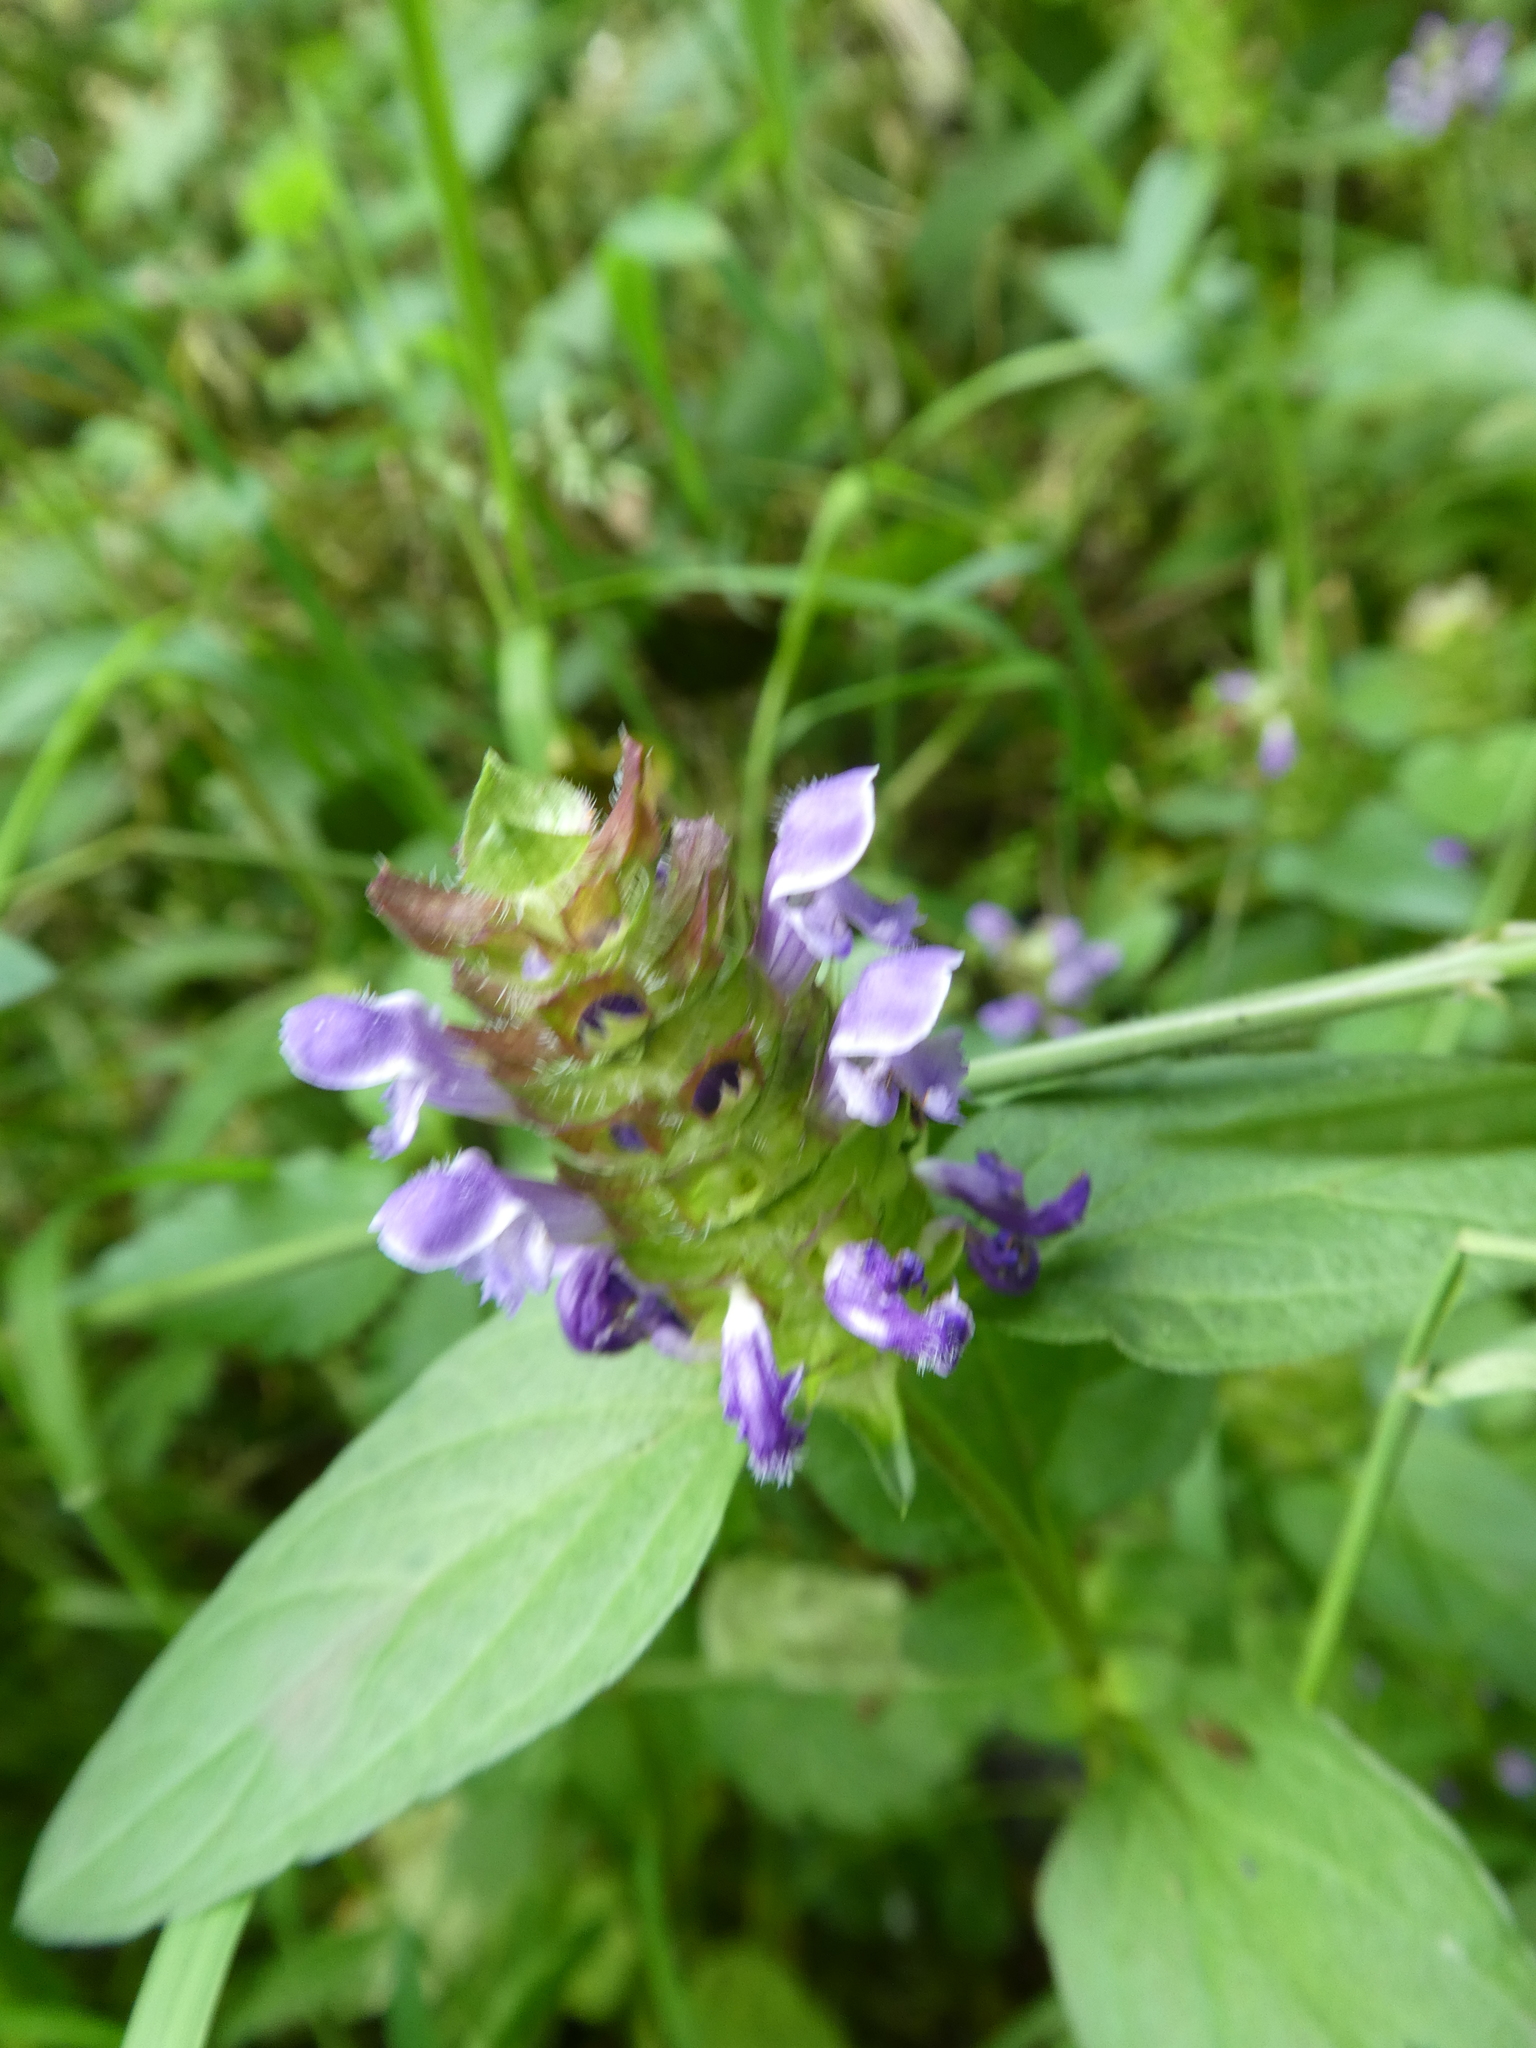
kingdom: Plantae
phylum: Tracheophyta
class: Magnoliopsida
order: Lamiales
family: Lamiaceae
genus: Prunella
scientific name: Prunella vulgaris
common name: Heal-all
